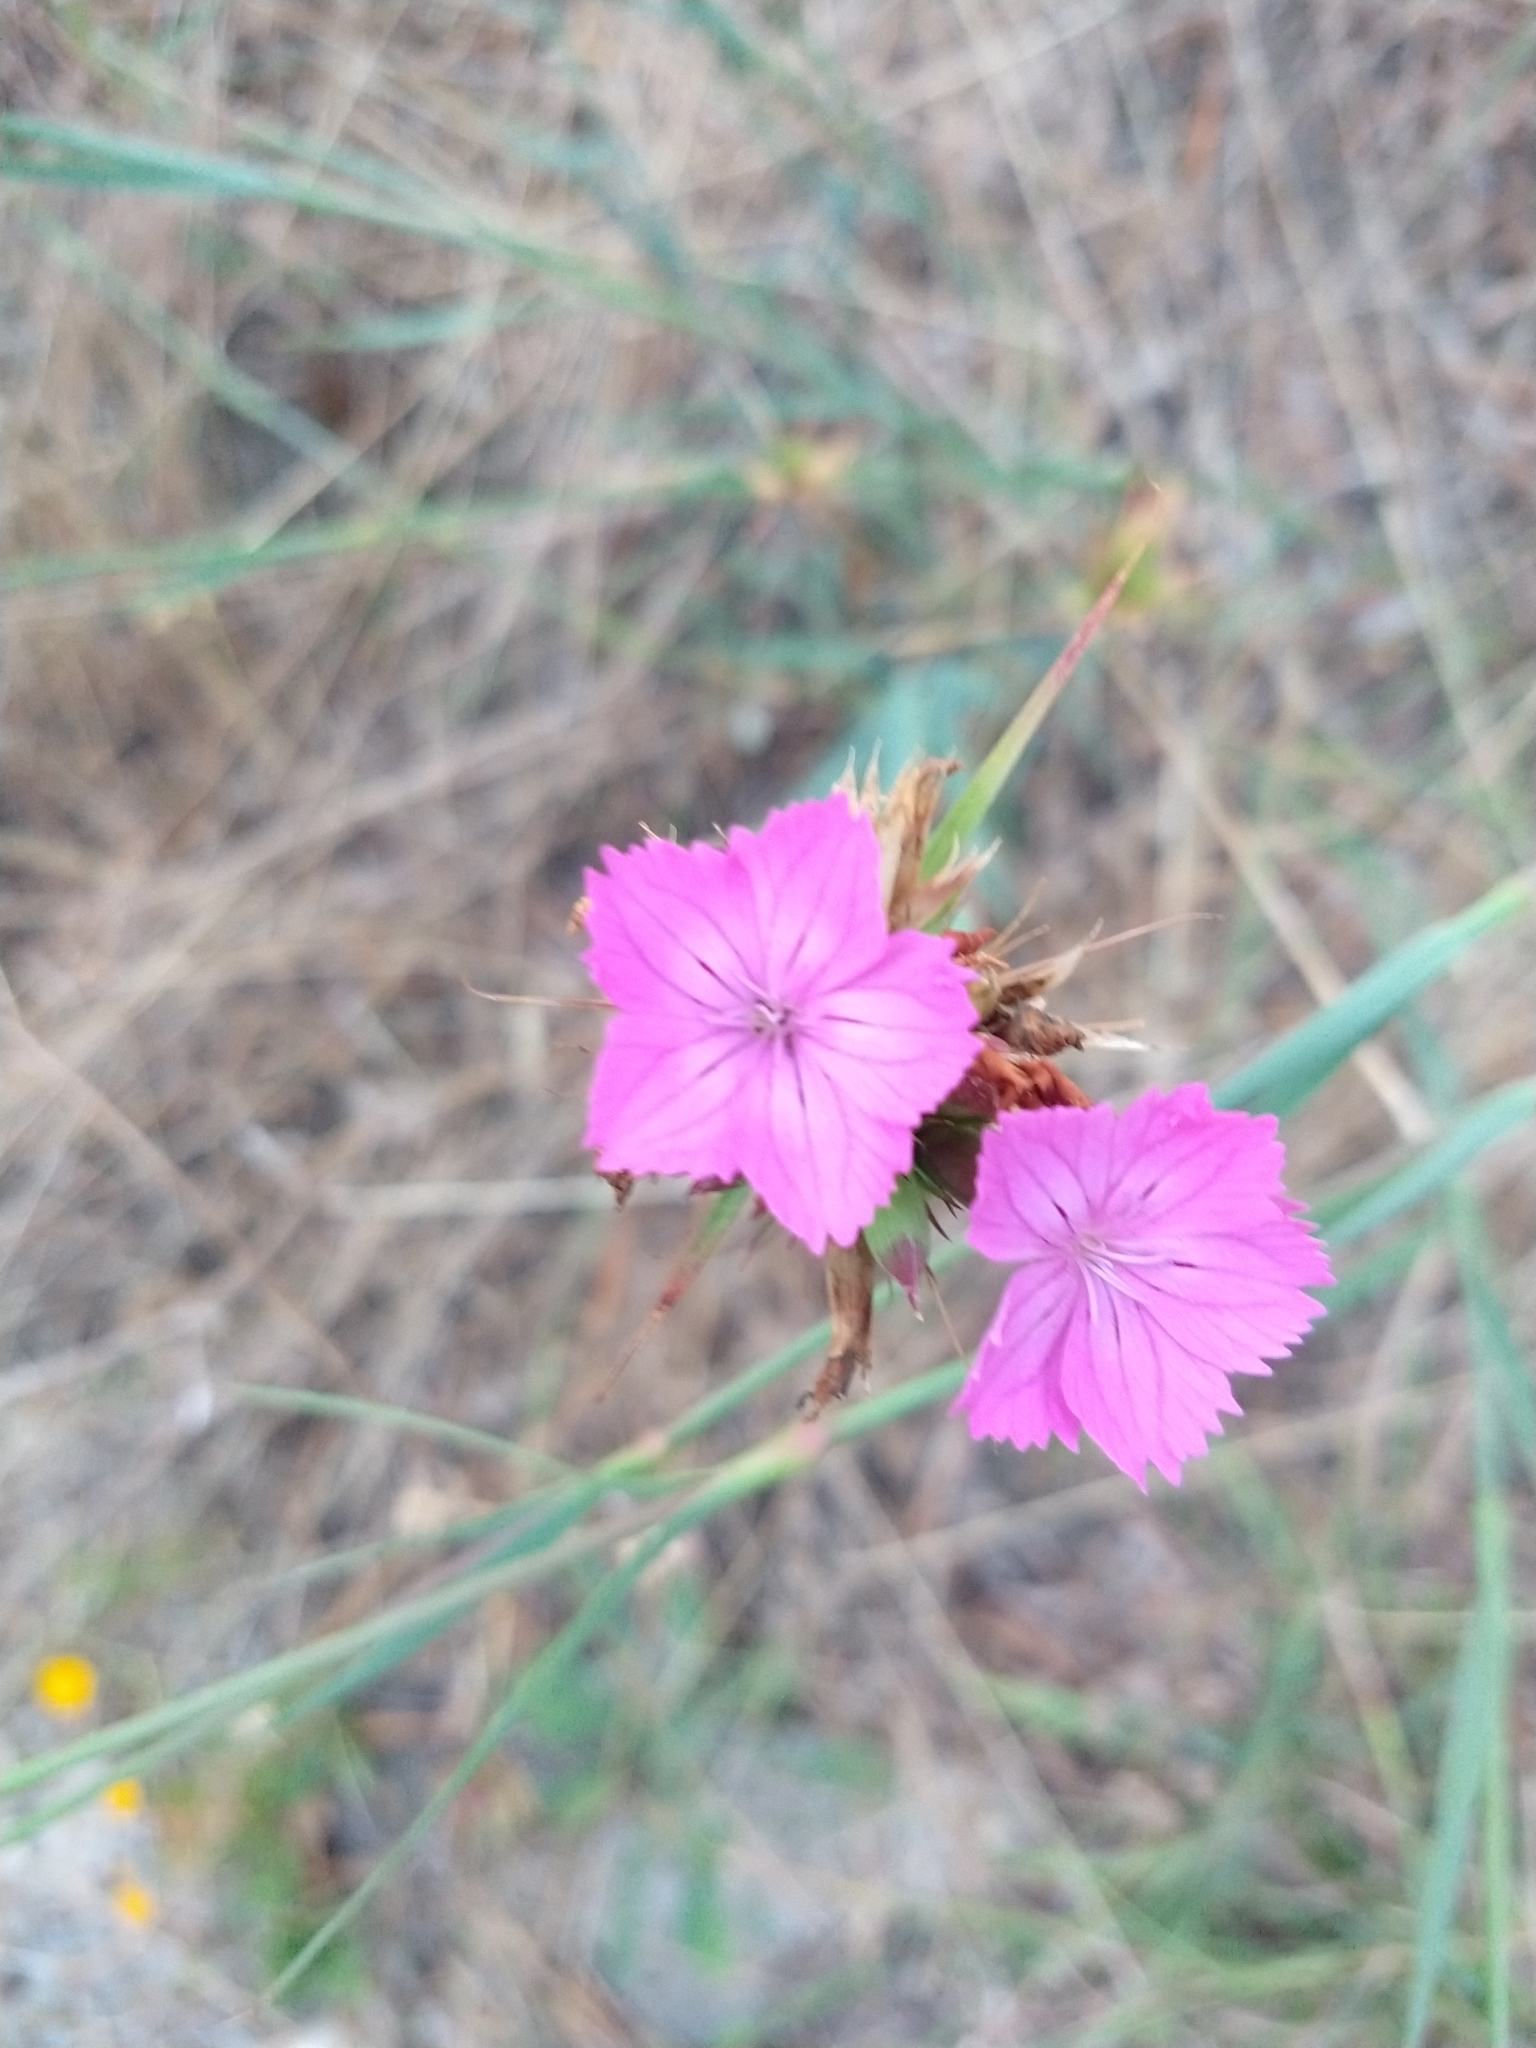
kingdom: Plantae
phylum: Tracheophyta
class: Magnoliopsida
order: Caryophyllales
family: Caryophyllaceae
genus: Dianthus
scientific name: Dianthus balbisii
